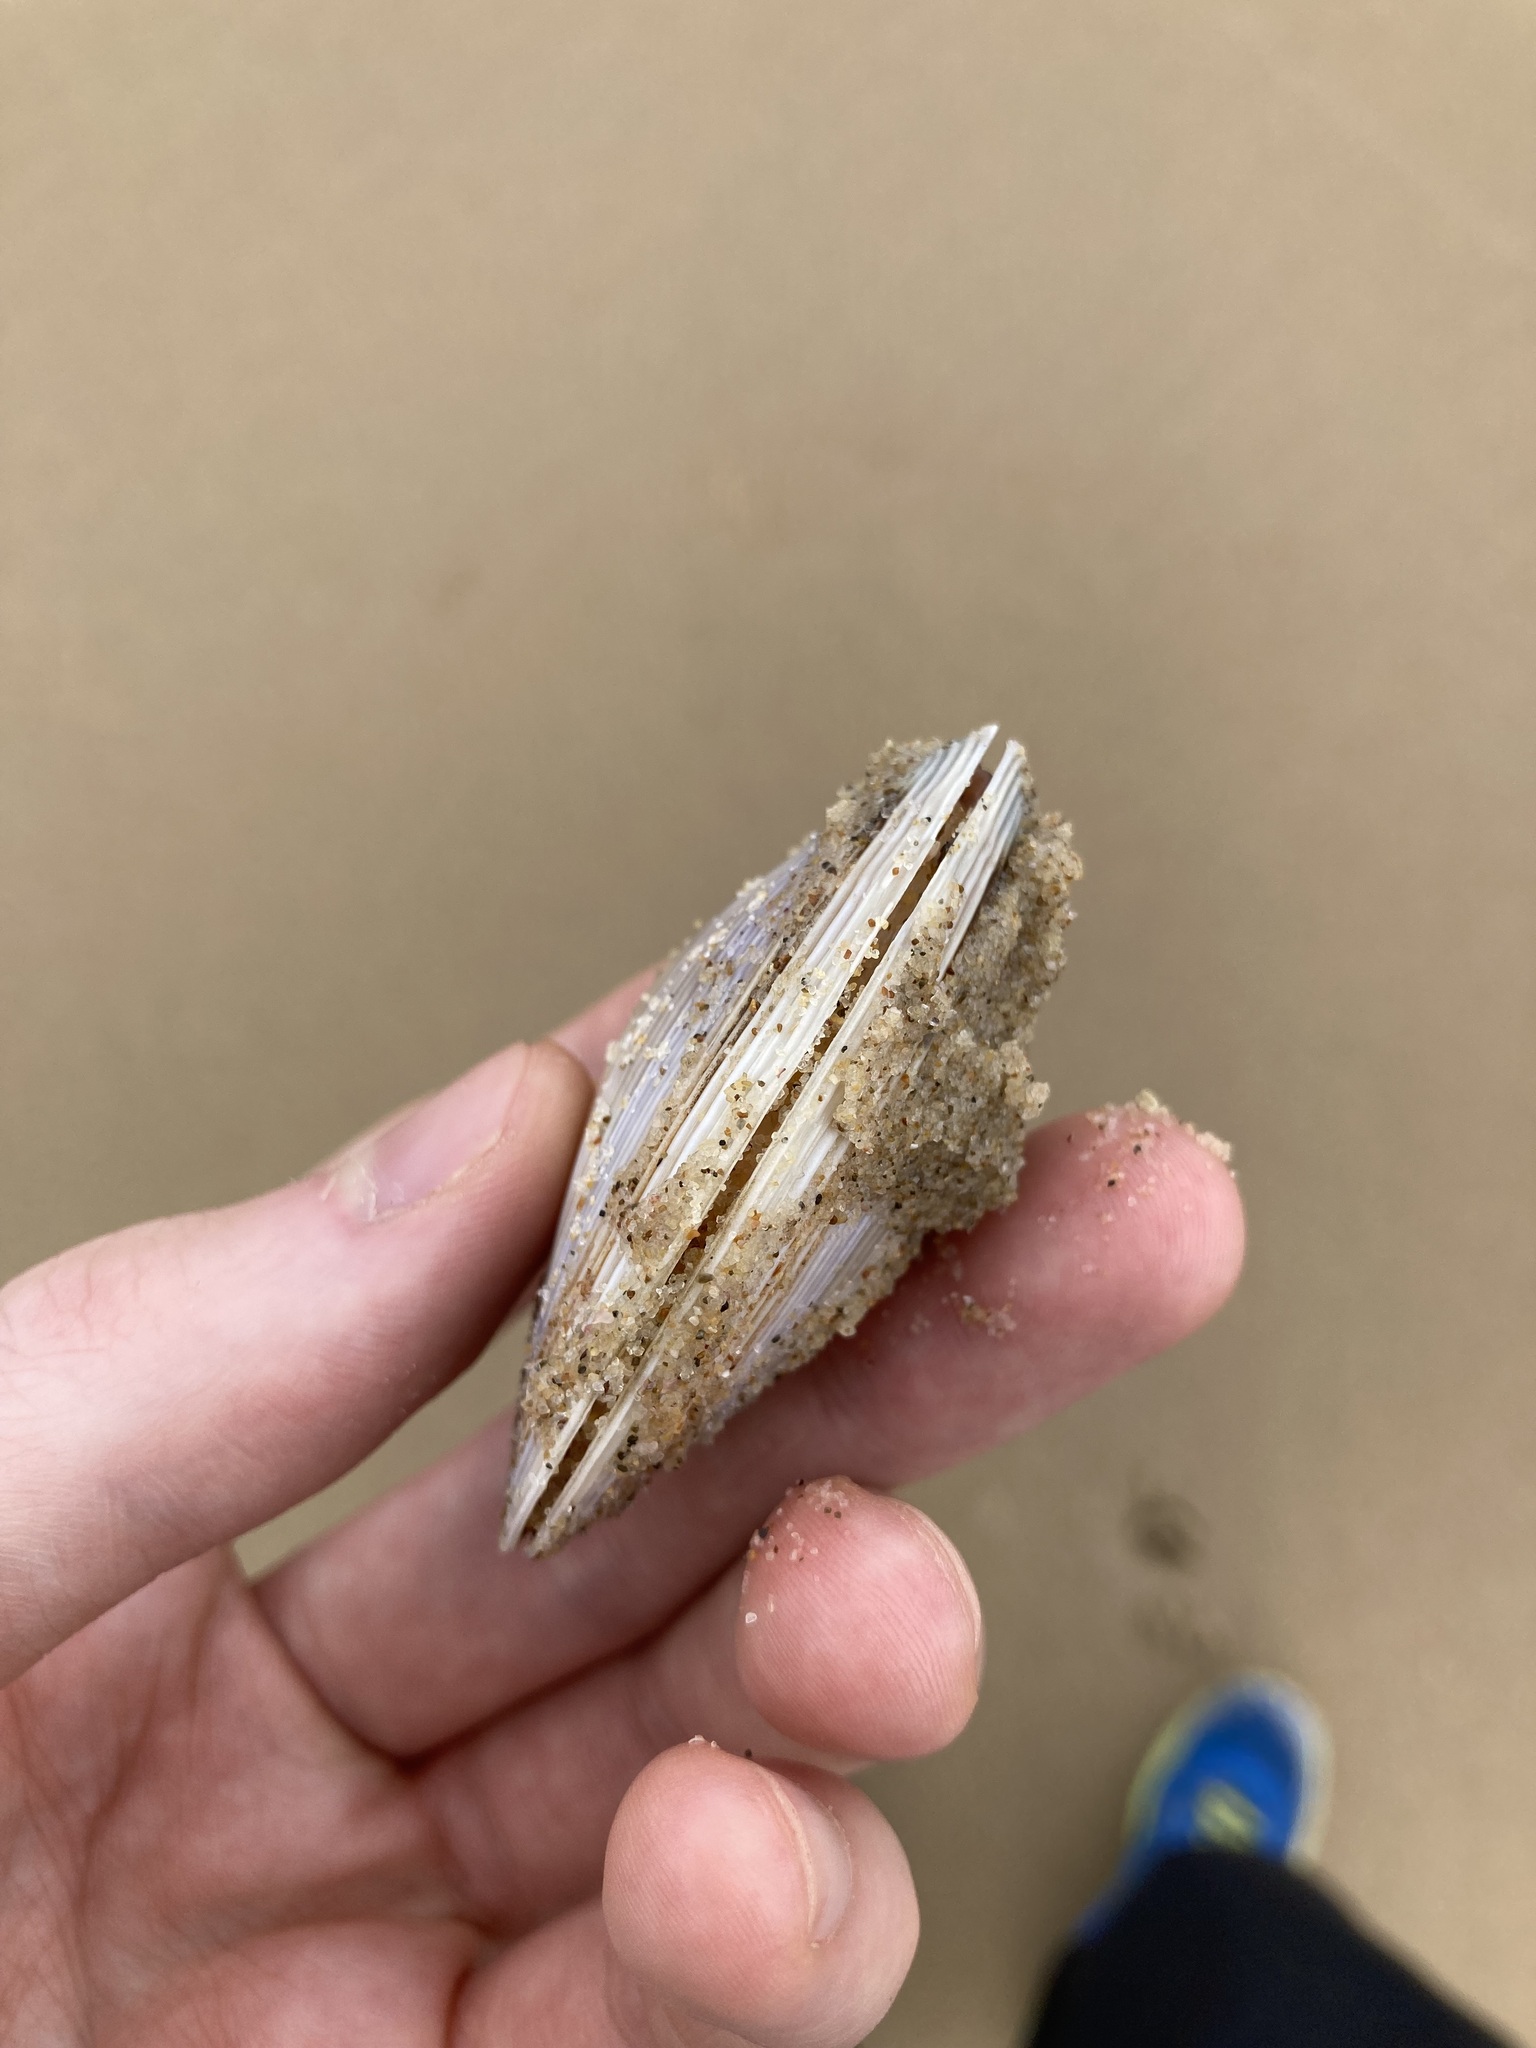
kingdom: Animalia
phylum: Mollusca
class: Bivalvia
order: Venerida
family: Mactridae
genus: Austromactra
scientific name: Austromactra contraria
